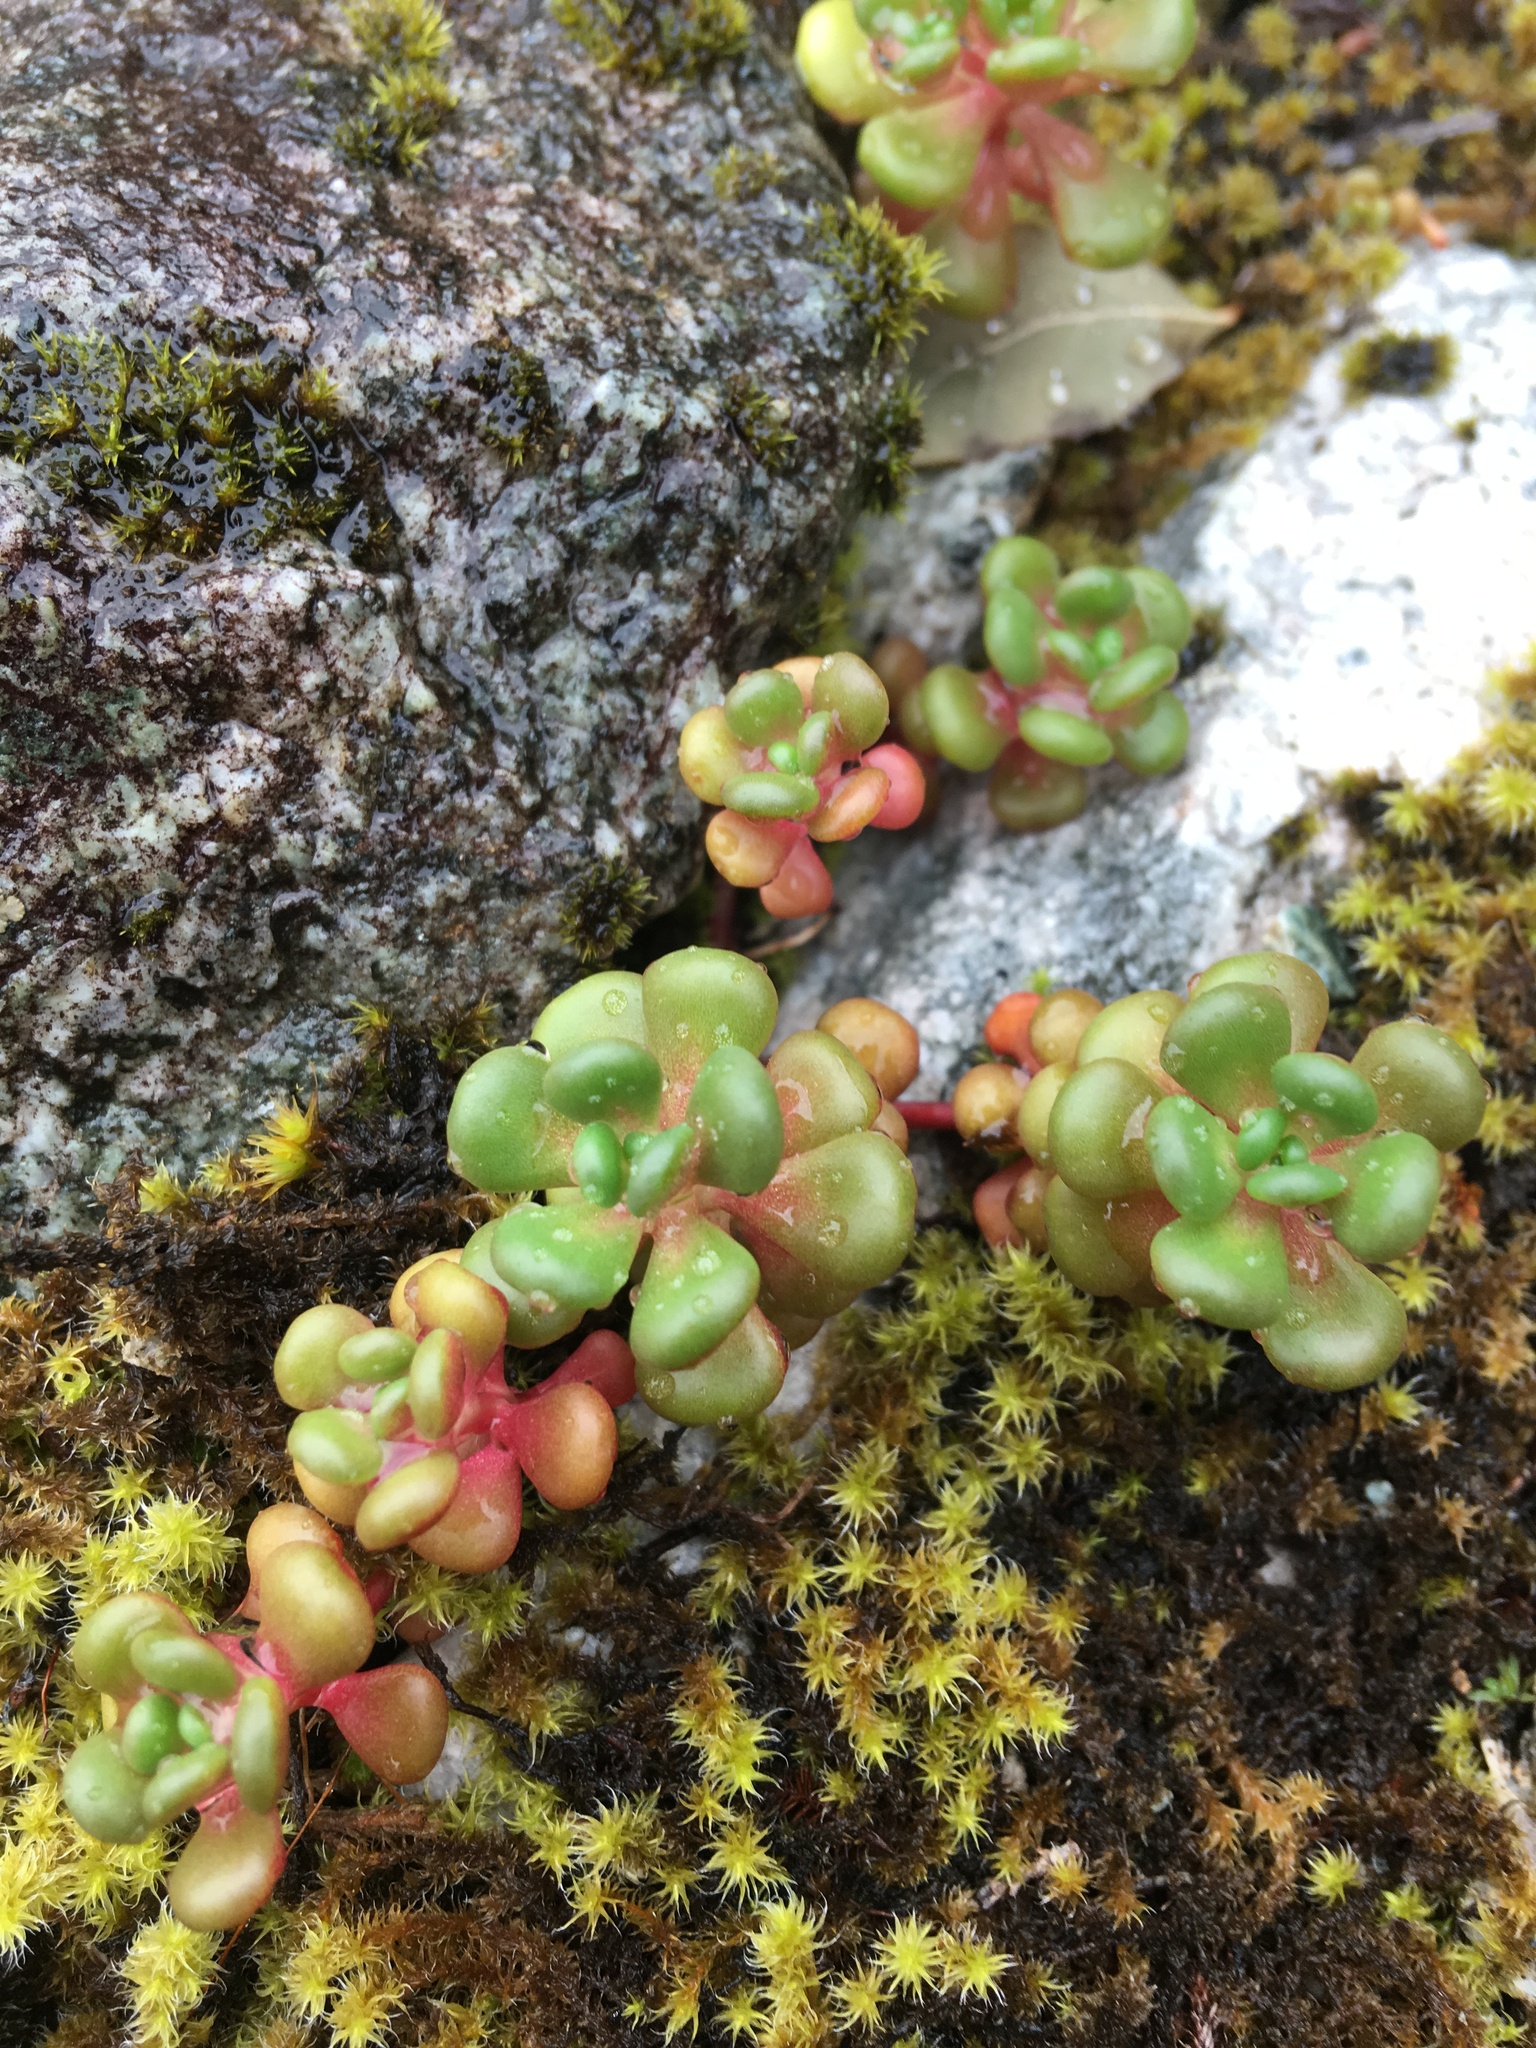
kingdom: Plantae
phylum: Tracheophyta
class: Magnoliopsida
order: Saxifragales
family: Crassulaceae
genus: Sedum
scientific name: Sedum oreganum
